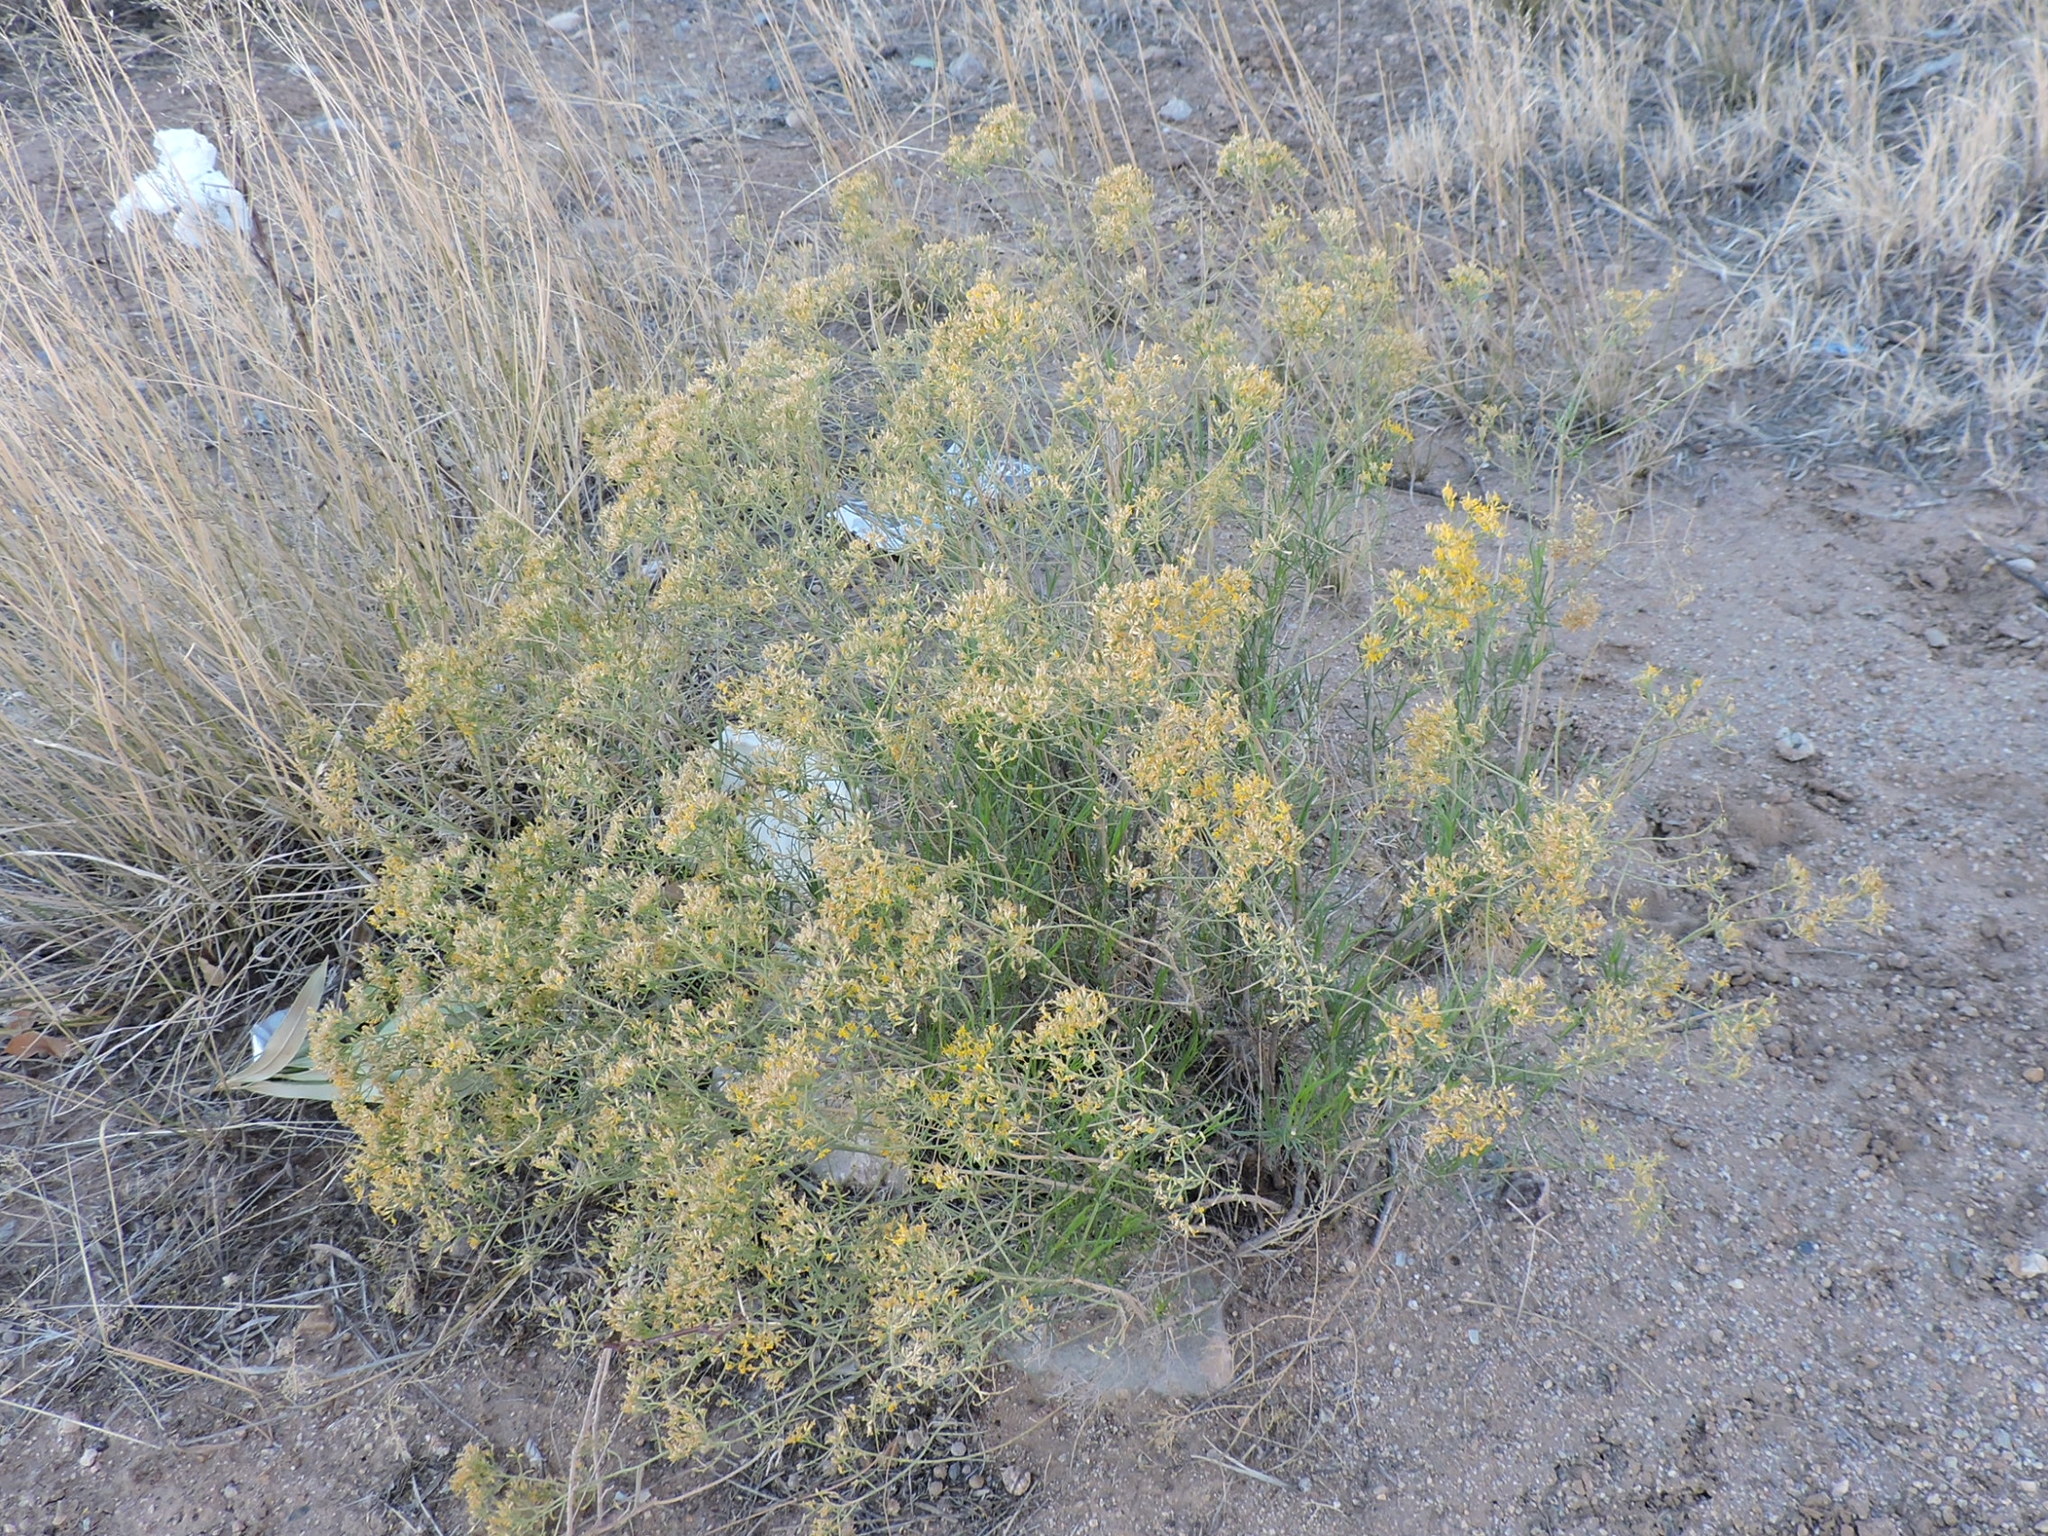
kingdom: Plantae
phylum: Tracheophyta
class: Magnoliopsida
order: Asterales
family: Asteraceae
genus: Gutierrezia
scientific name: Gutierrezia microcephala
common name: Thread snakeweed
